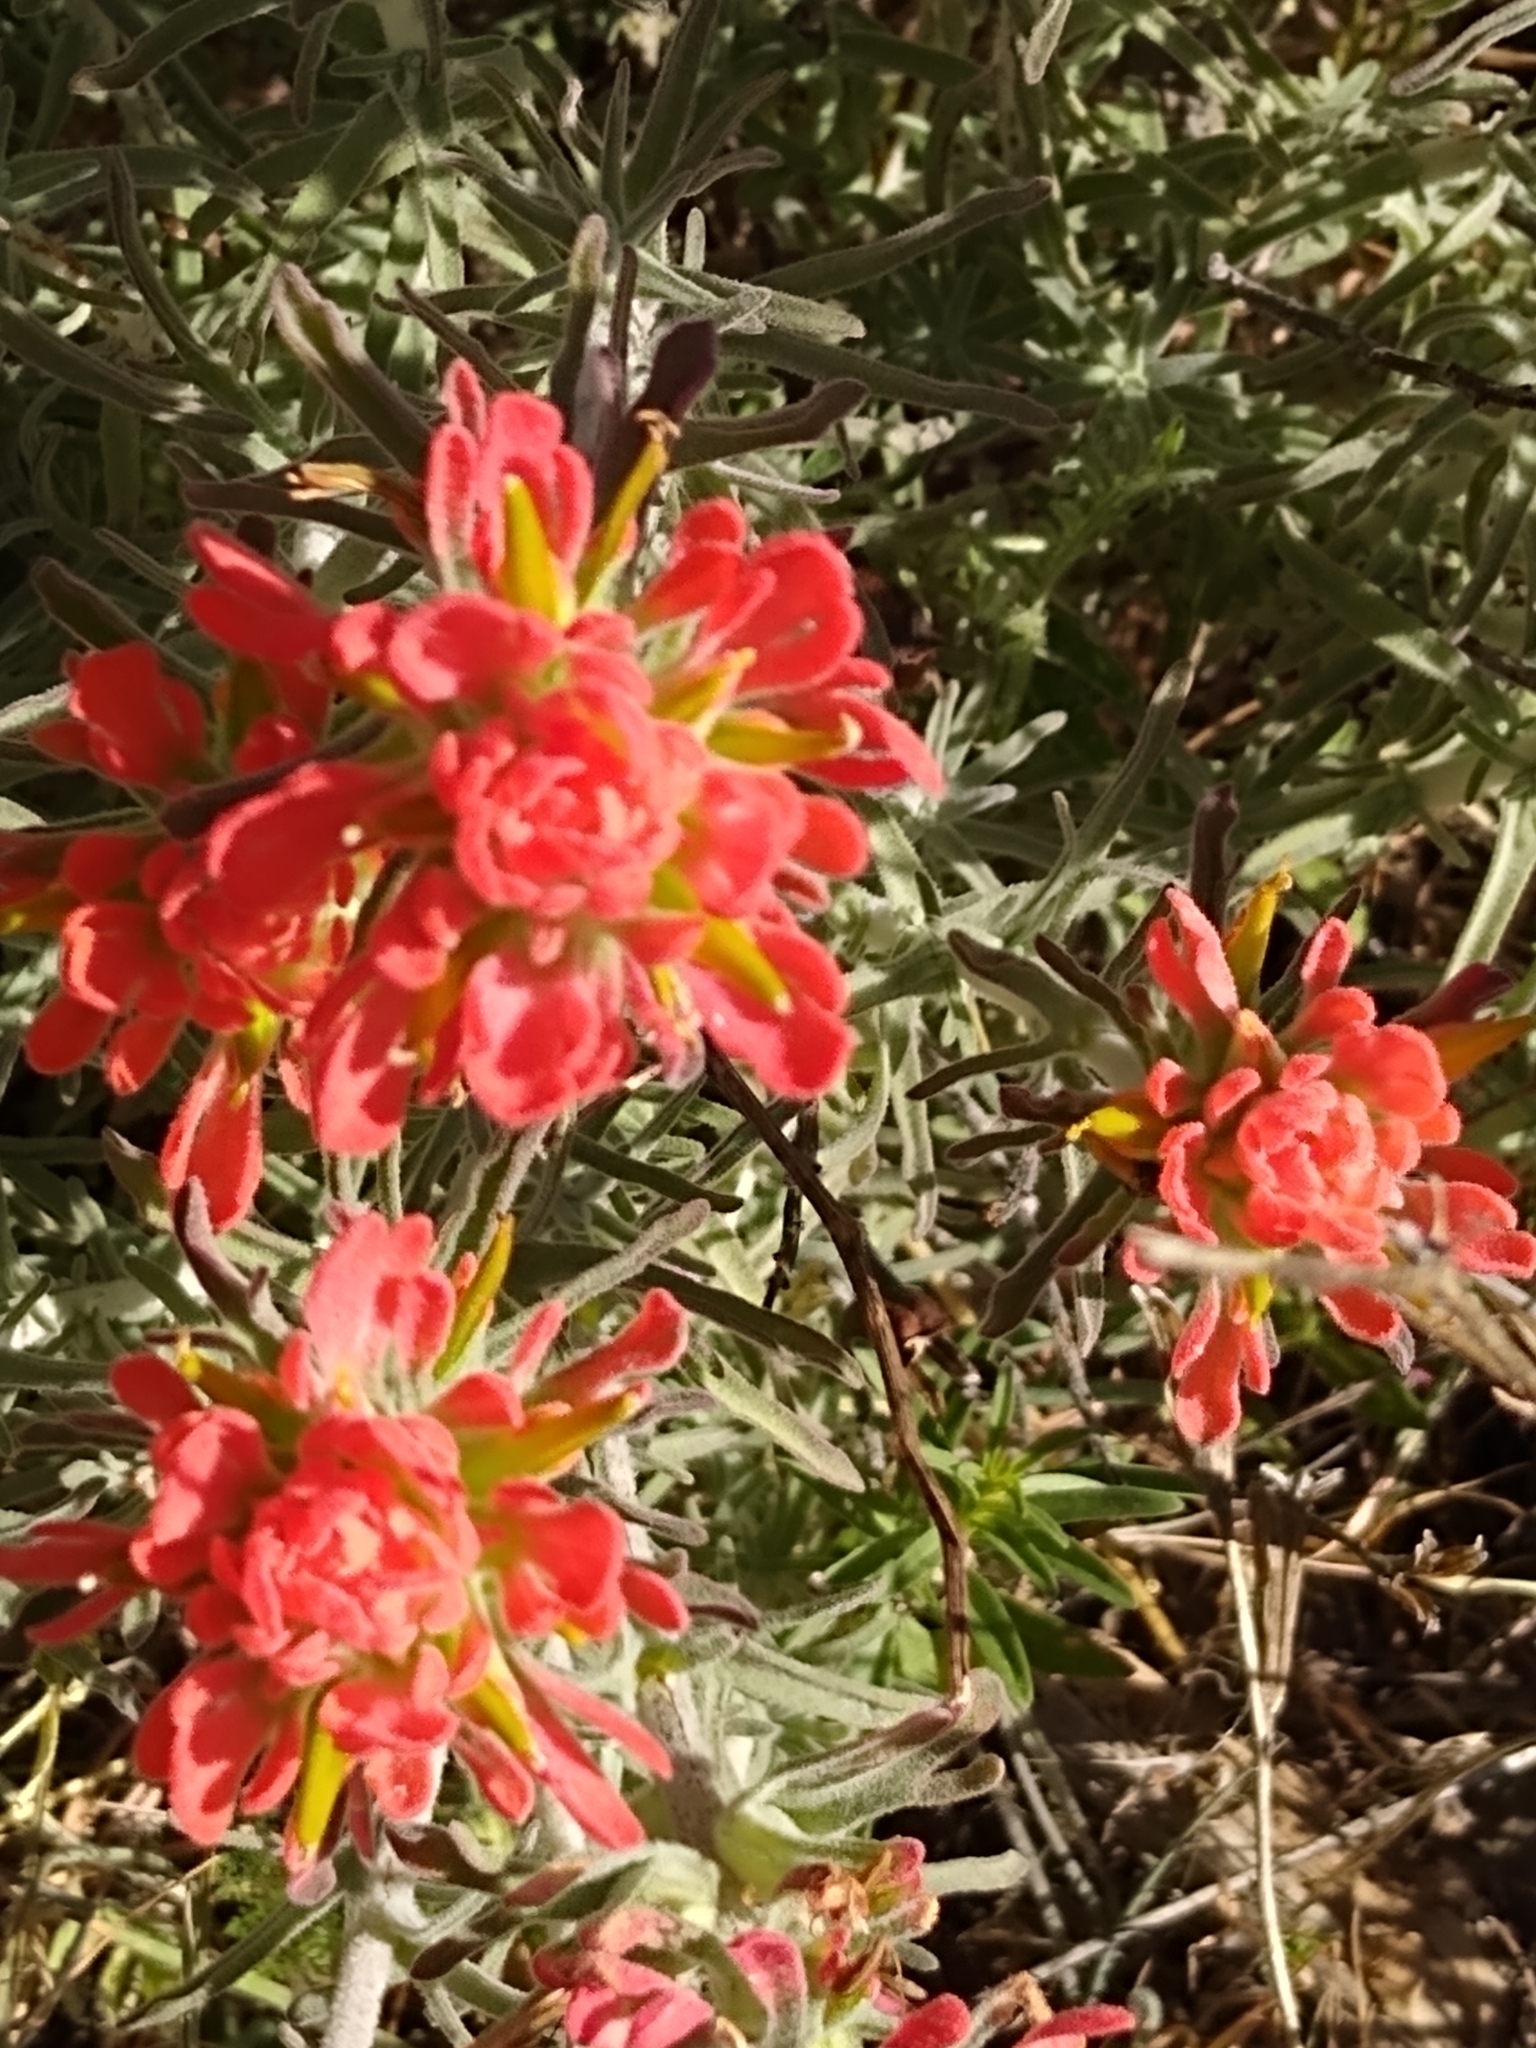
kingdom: Plantae
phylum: Tracheophyta
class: Magnoliopsida
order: Lamiales
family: Orobanchaceae
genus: Castilleja
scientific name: Castilleja foliolosa
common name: Woolly indian paintbrush
